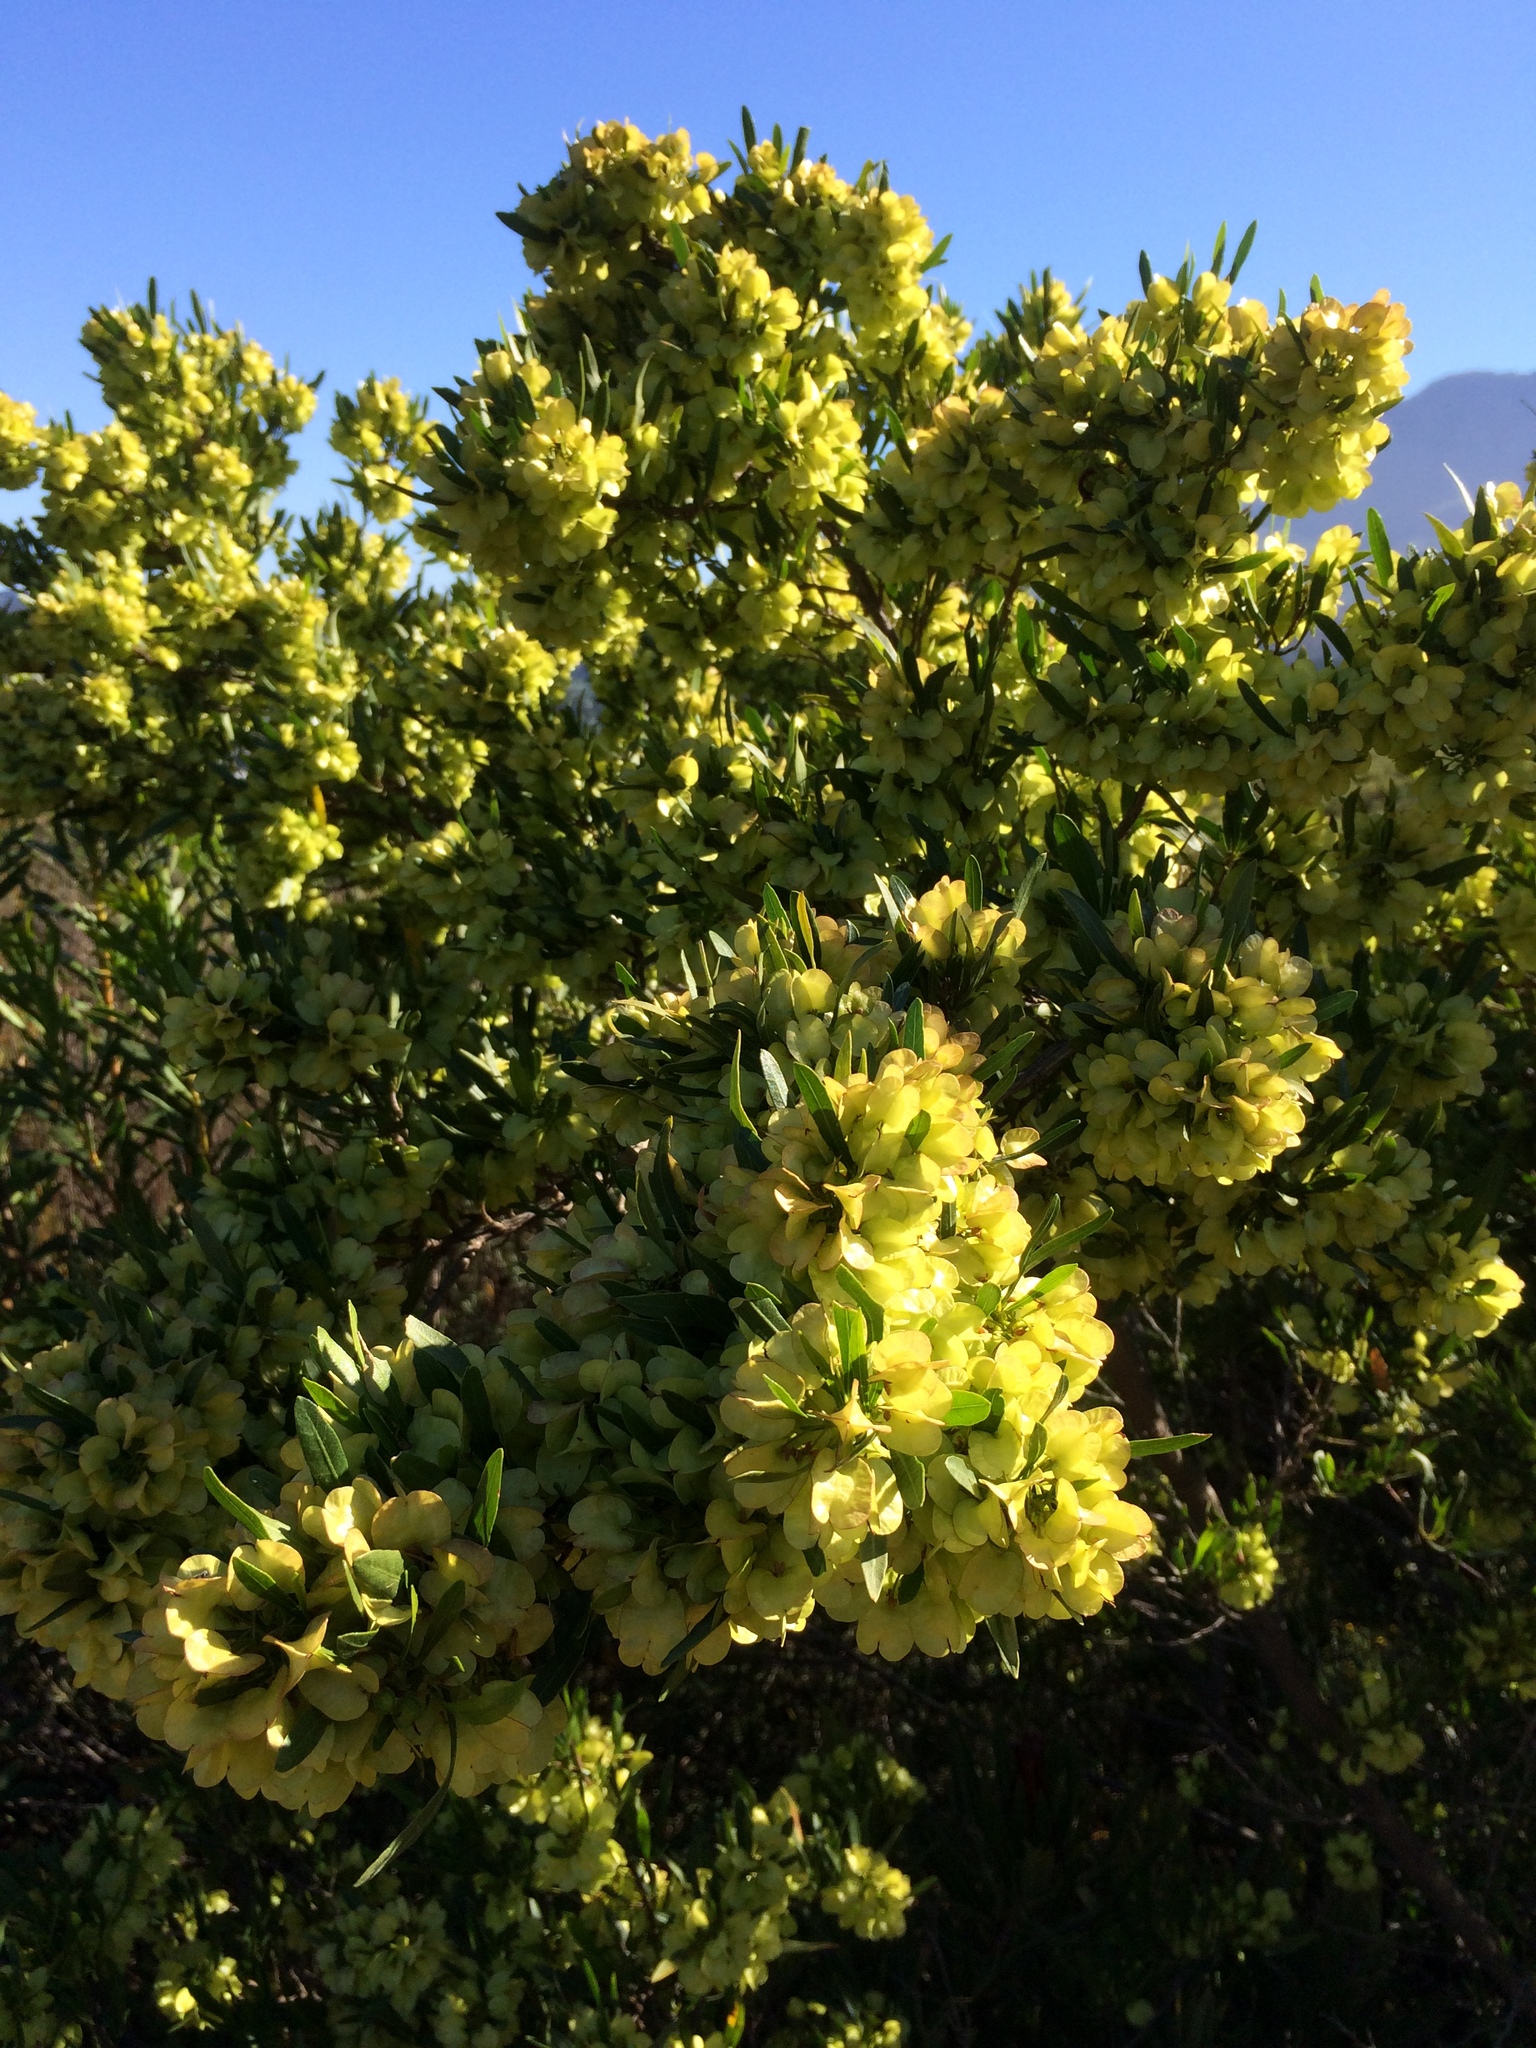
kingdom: Plantae
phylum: Tracheophyta
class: Magnoliopsida
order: Sapindales
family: Sapindaceae
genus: Dodonaea
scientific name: Dodonaea viscosa
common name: Hopbush
